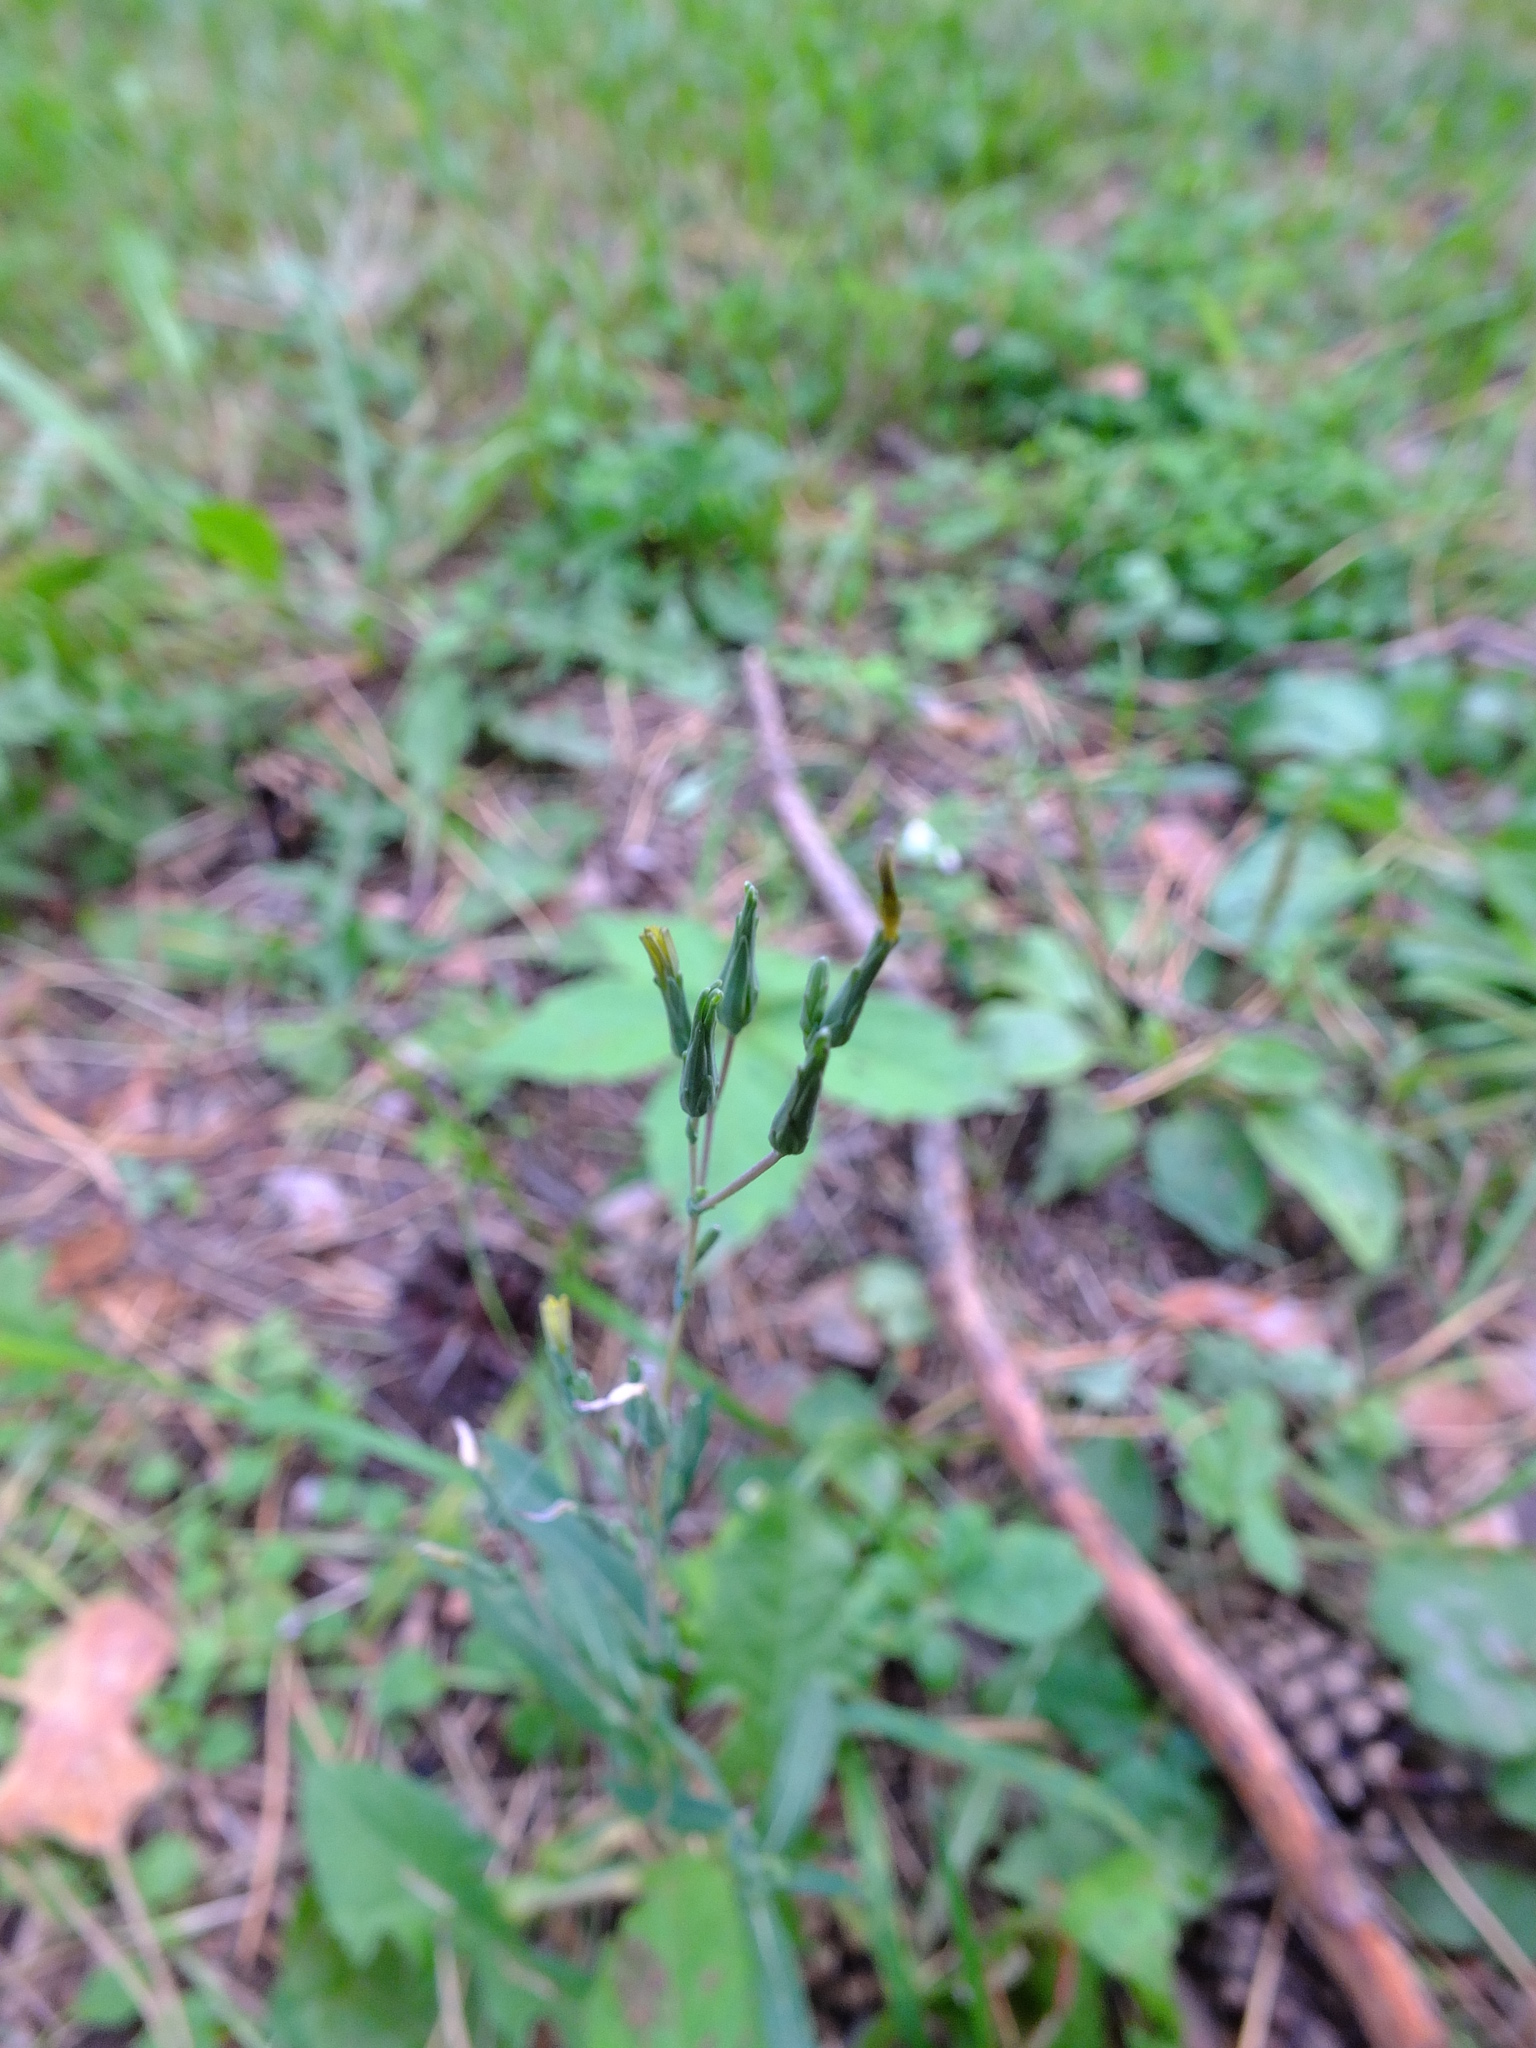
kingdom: Plantae
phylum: Tracheophyta
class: Magnoliopsida
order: Asterales
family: Asteraceae
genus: Lactuca
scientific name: Lactuca serriola
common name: Prickly lettuce
